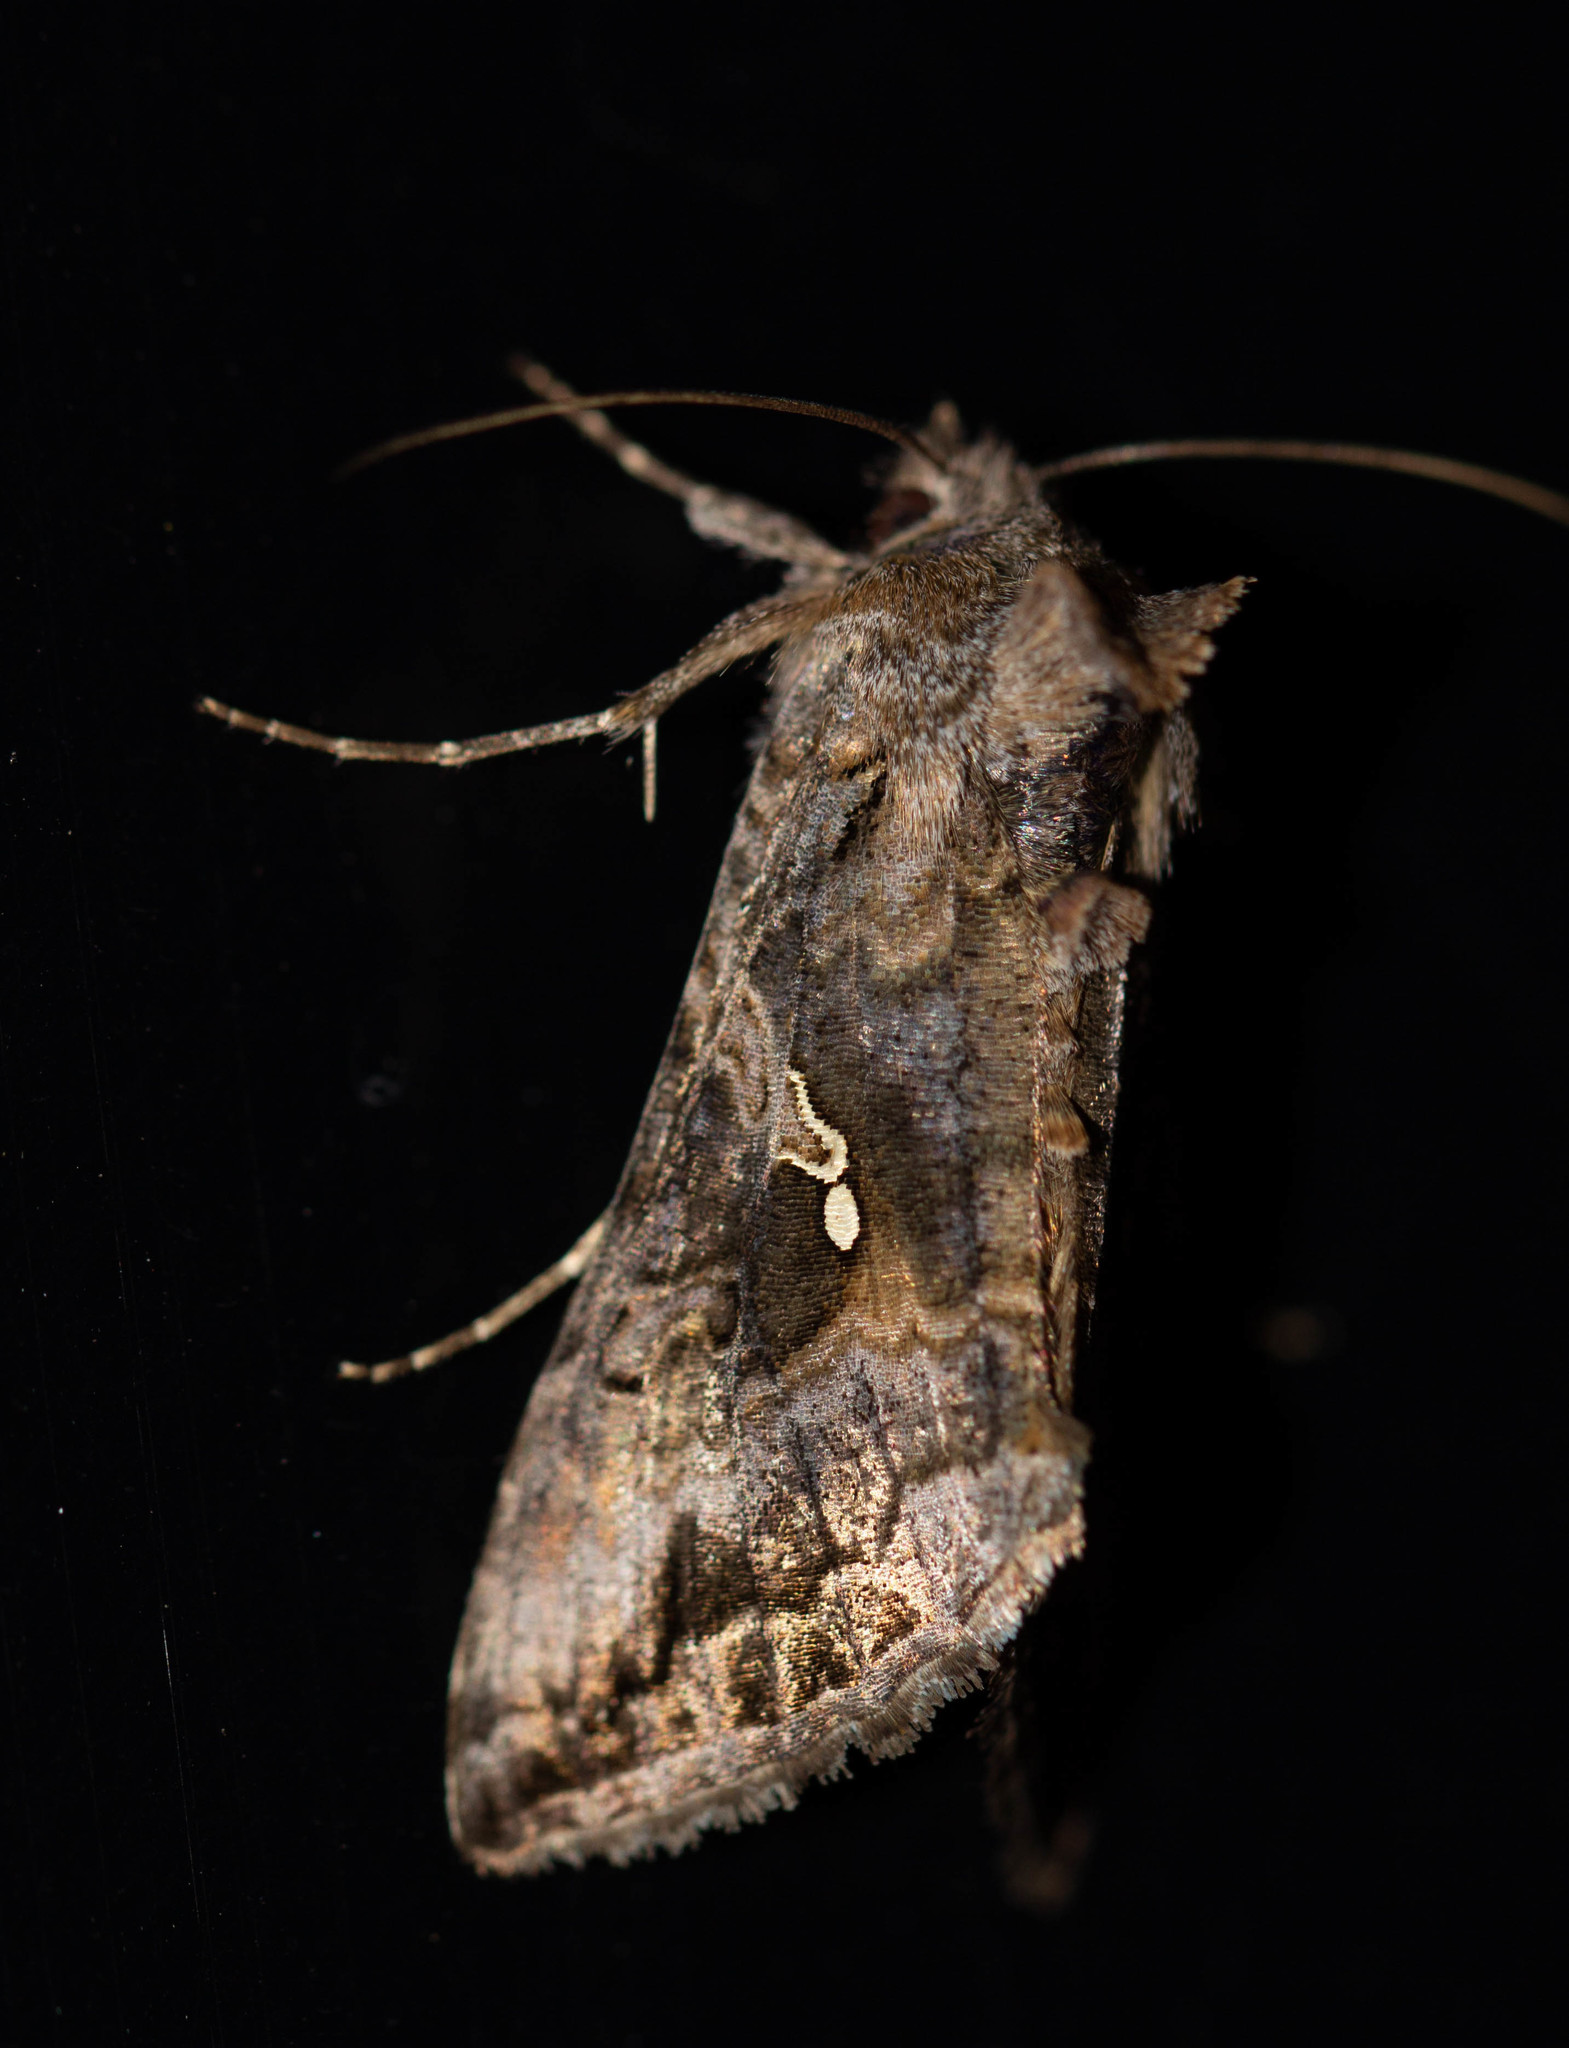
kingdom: Animalia
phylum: Arthropoda
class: Insecta
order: Lepidoptera
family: Noctuidae
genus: Rachiplusia
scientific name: Rachiplusia ou
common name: Gray looper moth
